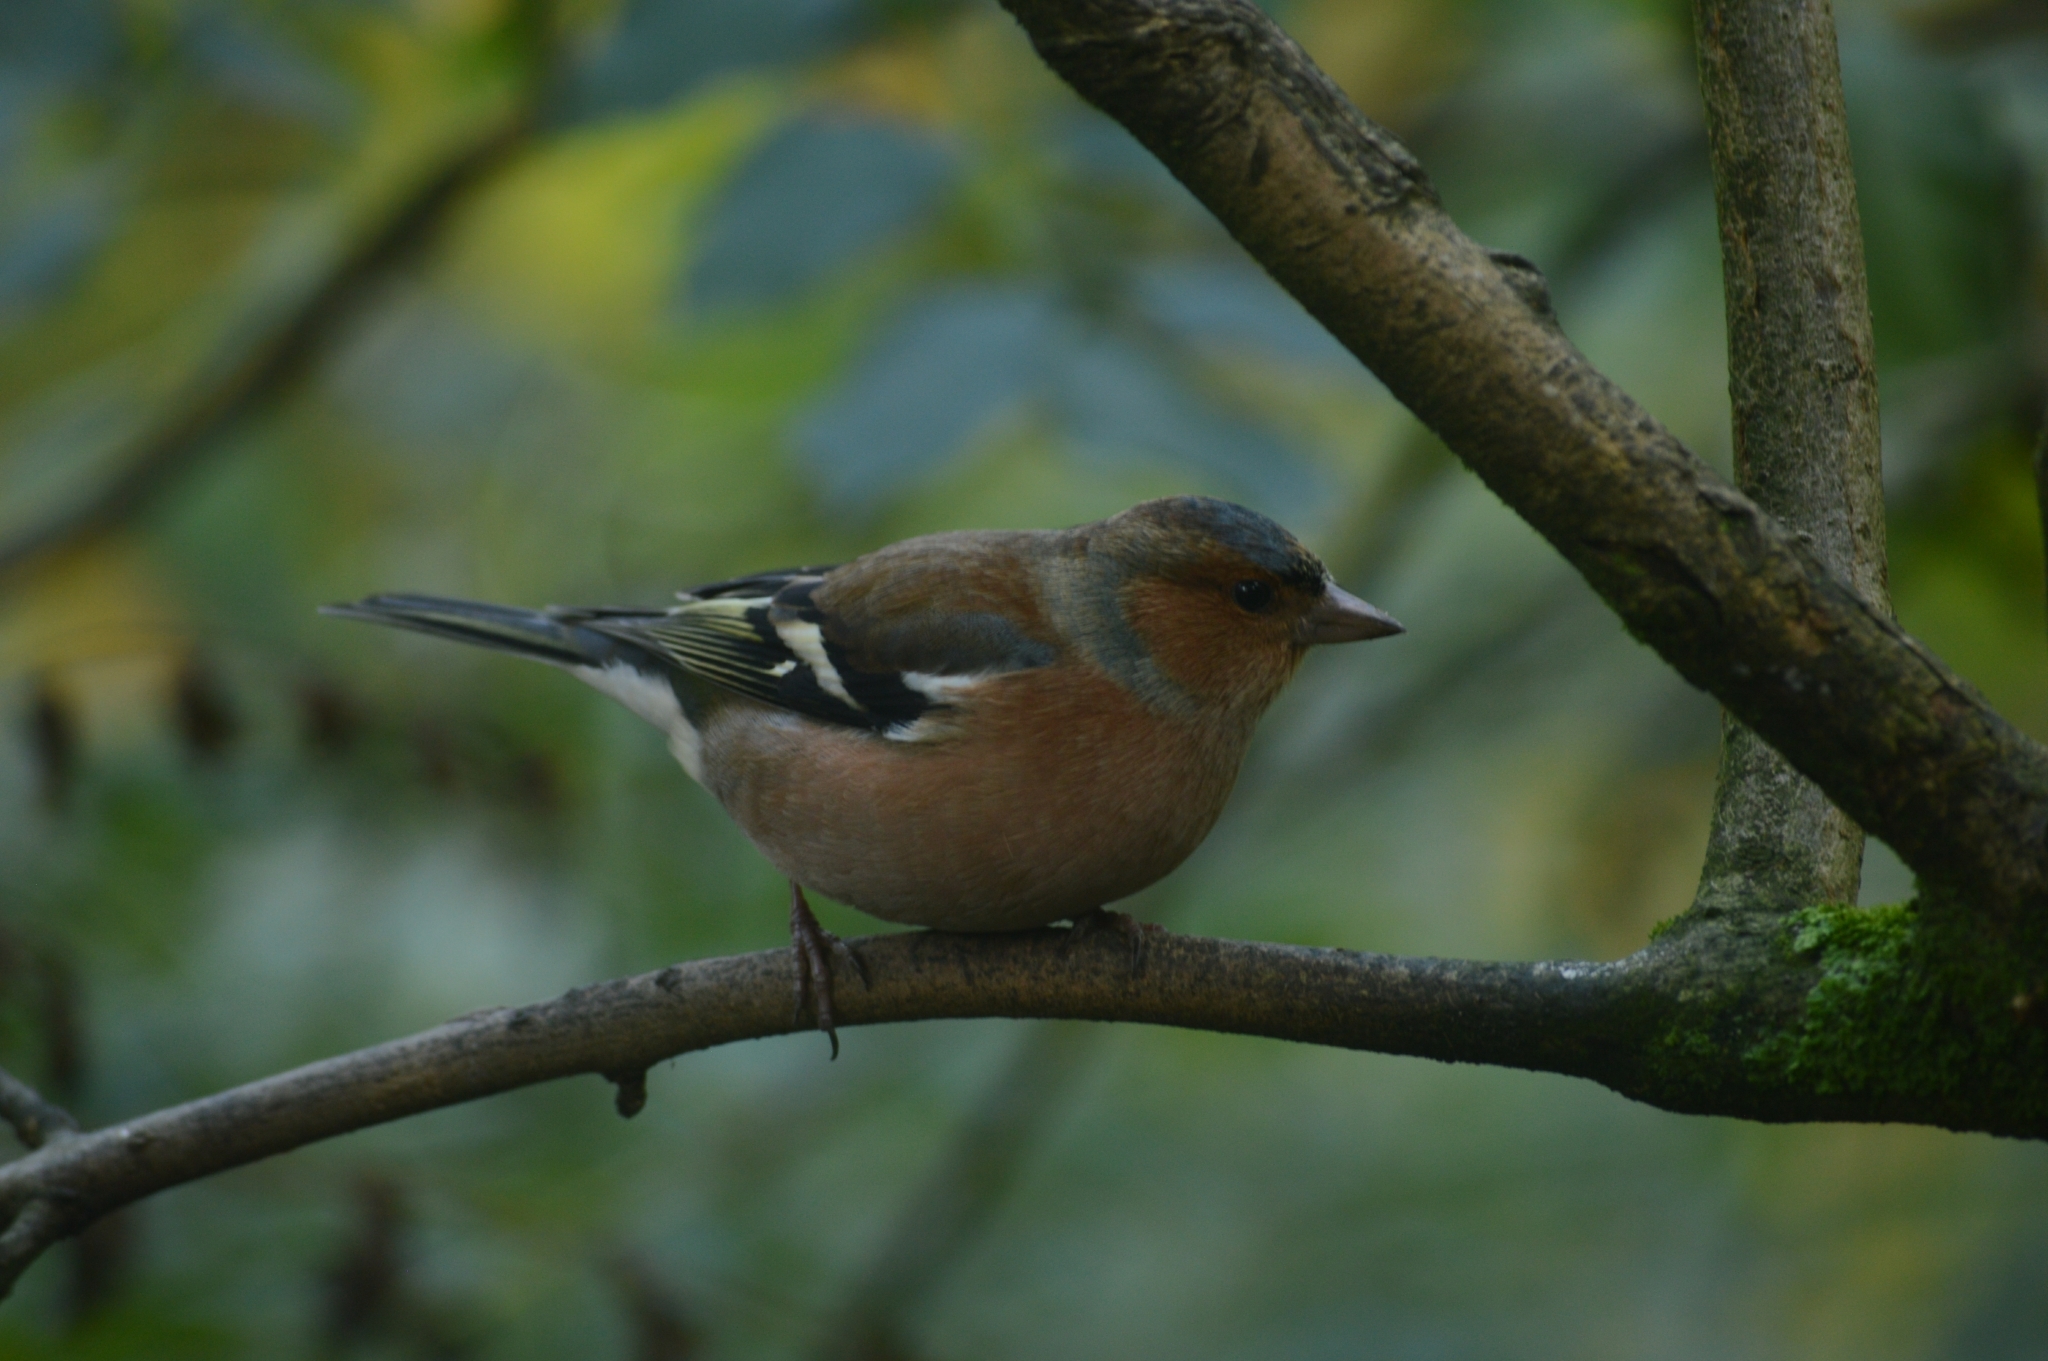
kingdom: Animalia
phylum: Chordata
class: Aves
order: Passeriformes
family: Fringillidae
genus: Fringilla
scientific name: Fringilla coelebs
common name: Common chaffinch
